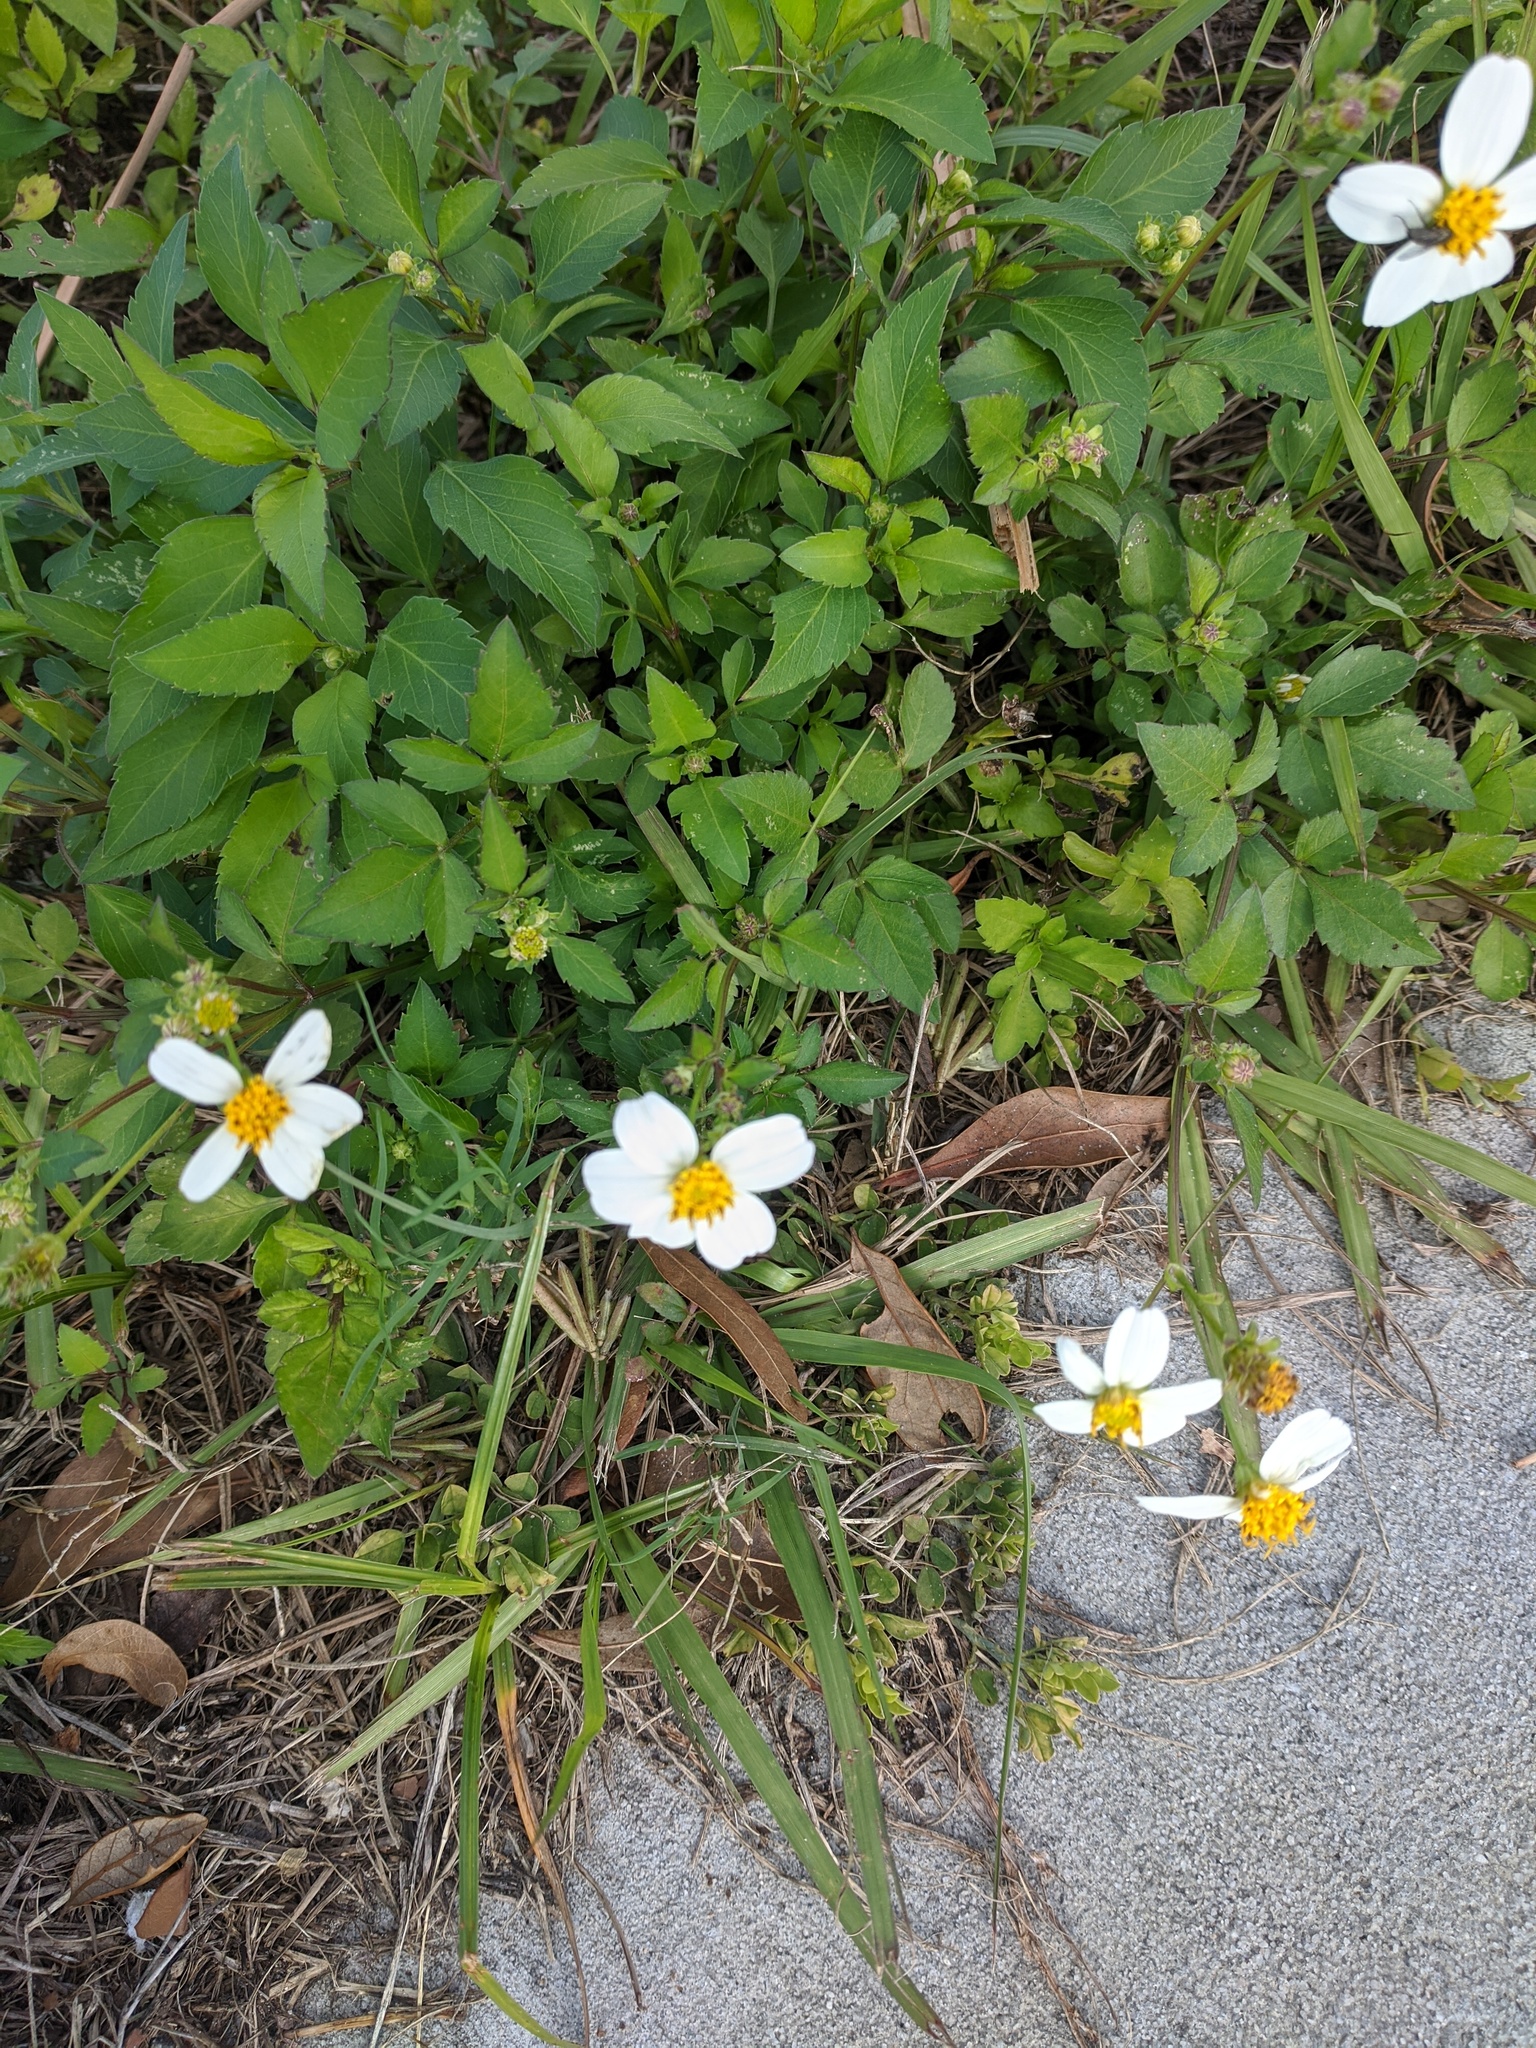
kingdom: Plantae
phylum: Tracheophyta
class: Magnoliopsida
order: Asterales
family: Asteraceae
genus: Bidens
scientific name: Bidens alba
